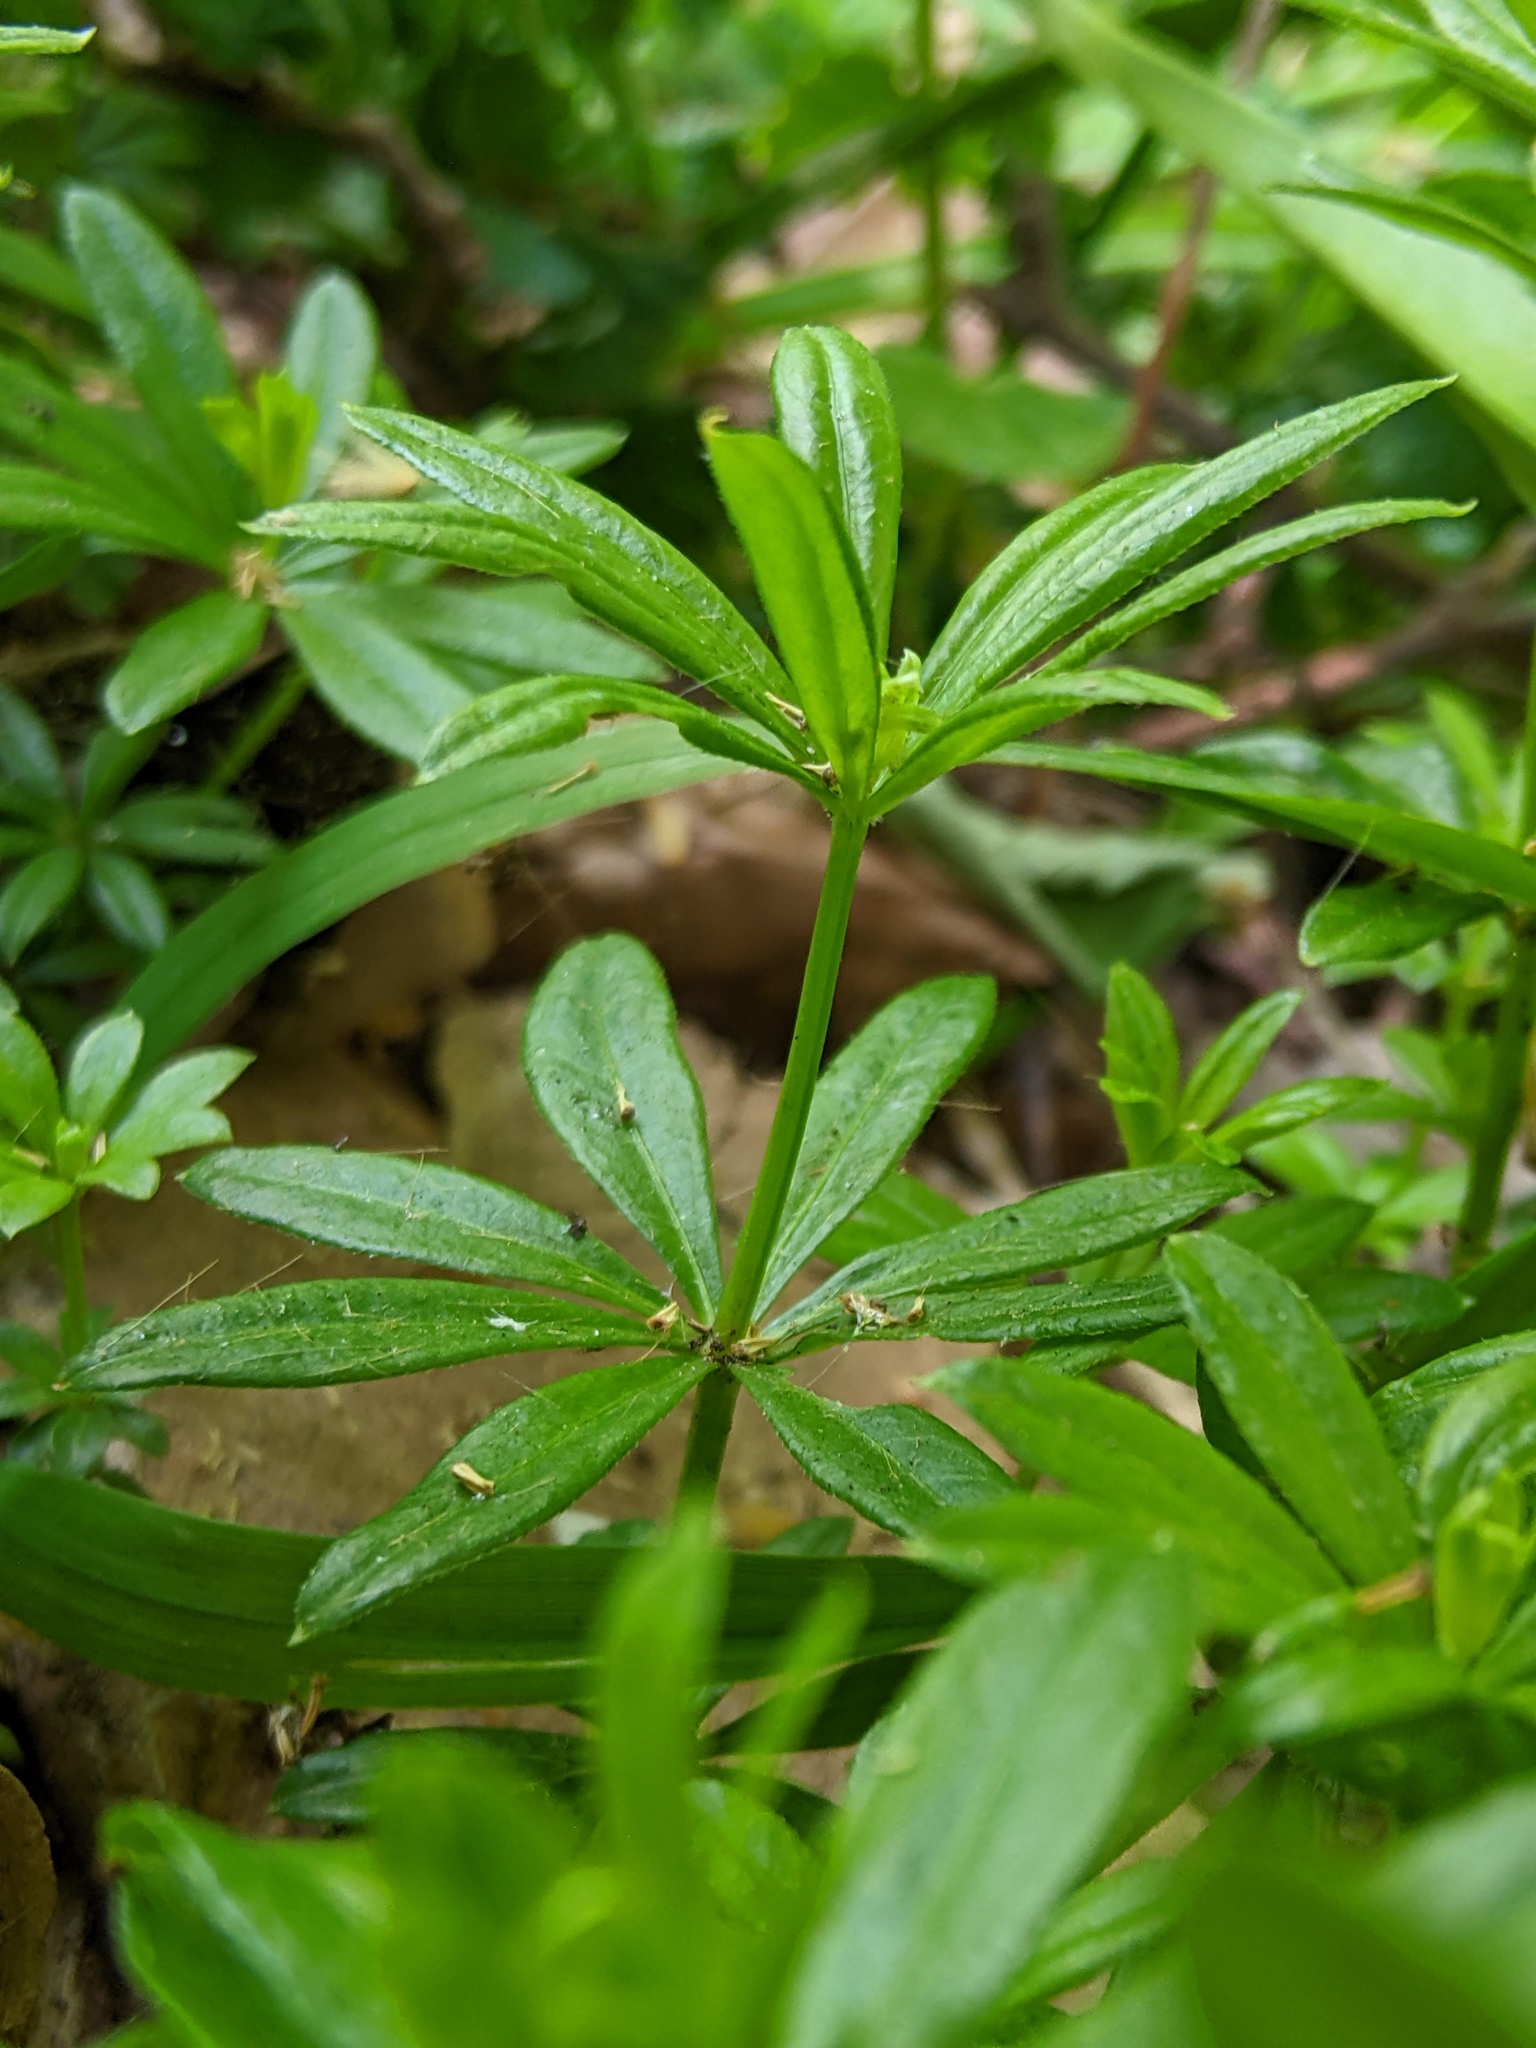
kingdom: Plantae
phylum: Tracheophyta
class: Magnoliopsida
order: Gentianales
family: Rubiaceae
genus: Galium
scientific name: Galium odoratum
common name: Sweet woodruff
